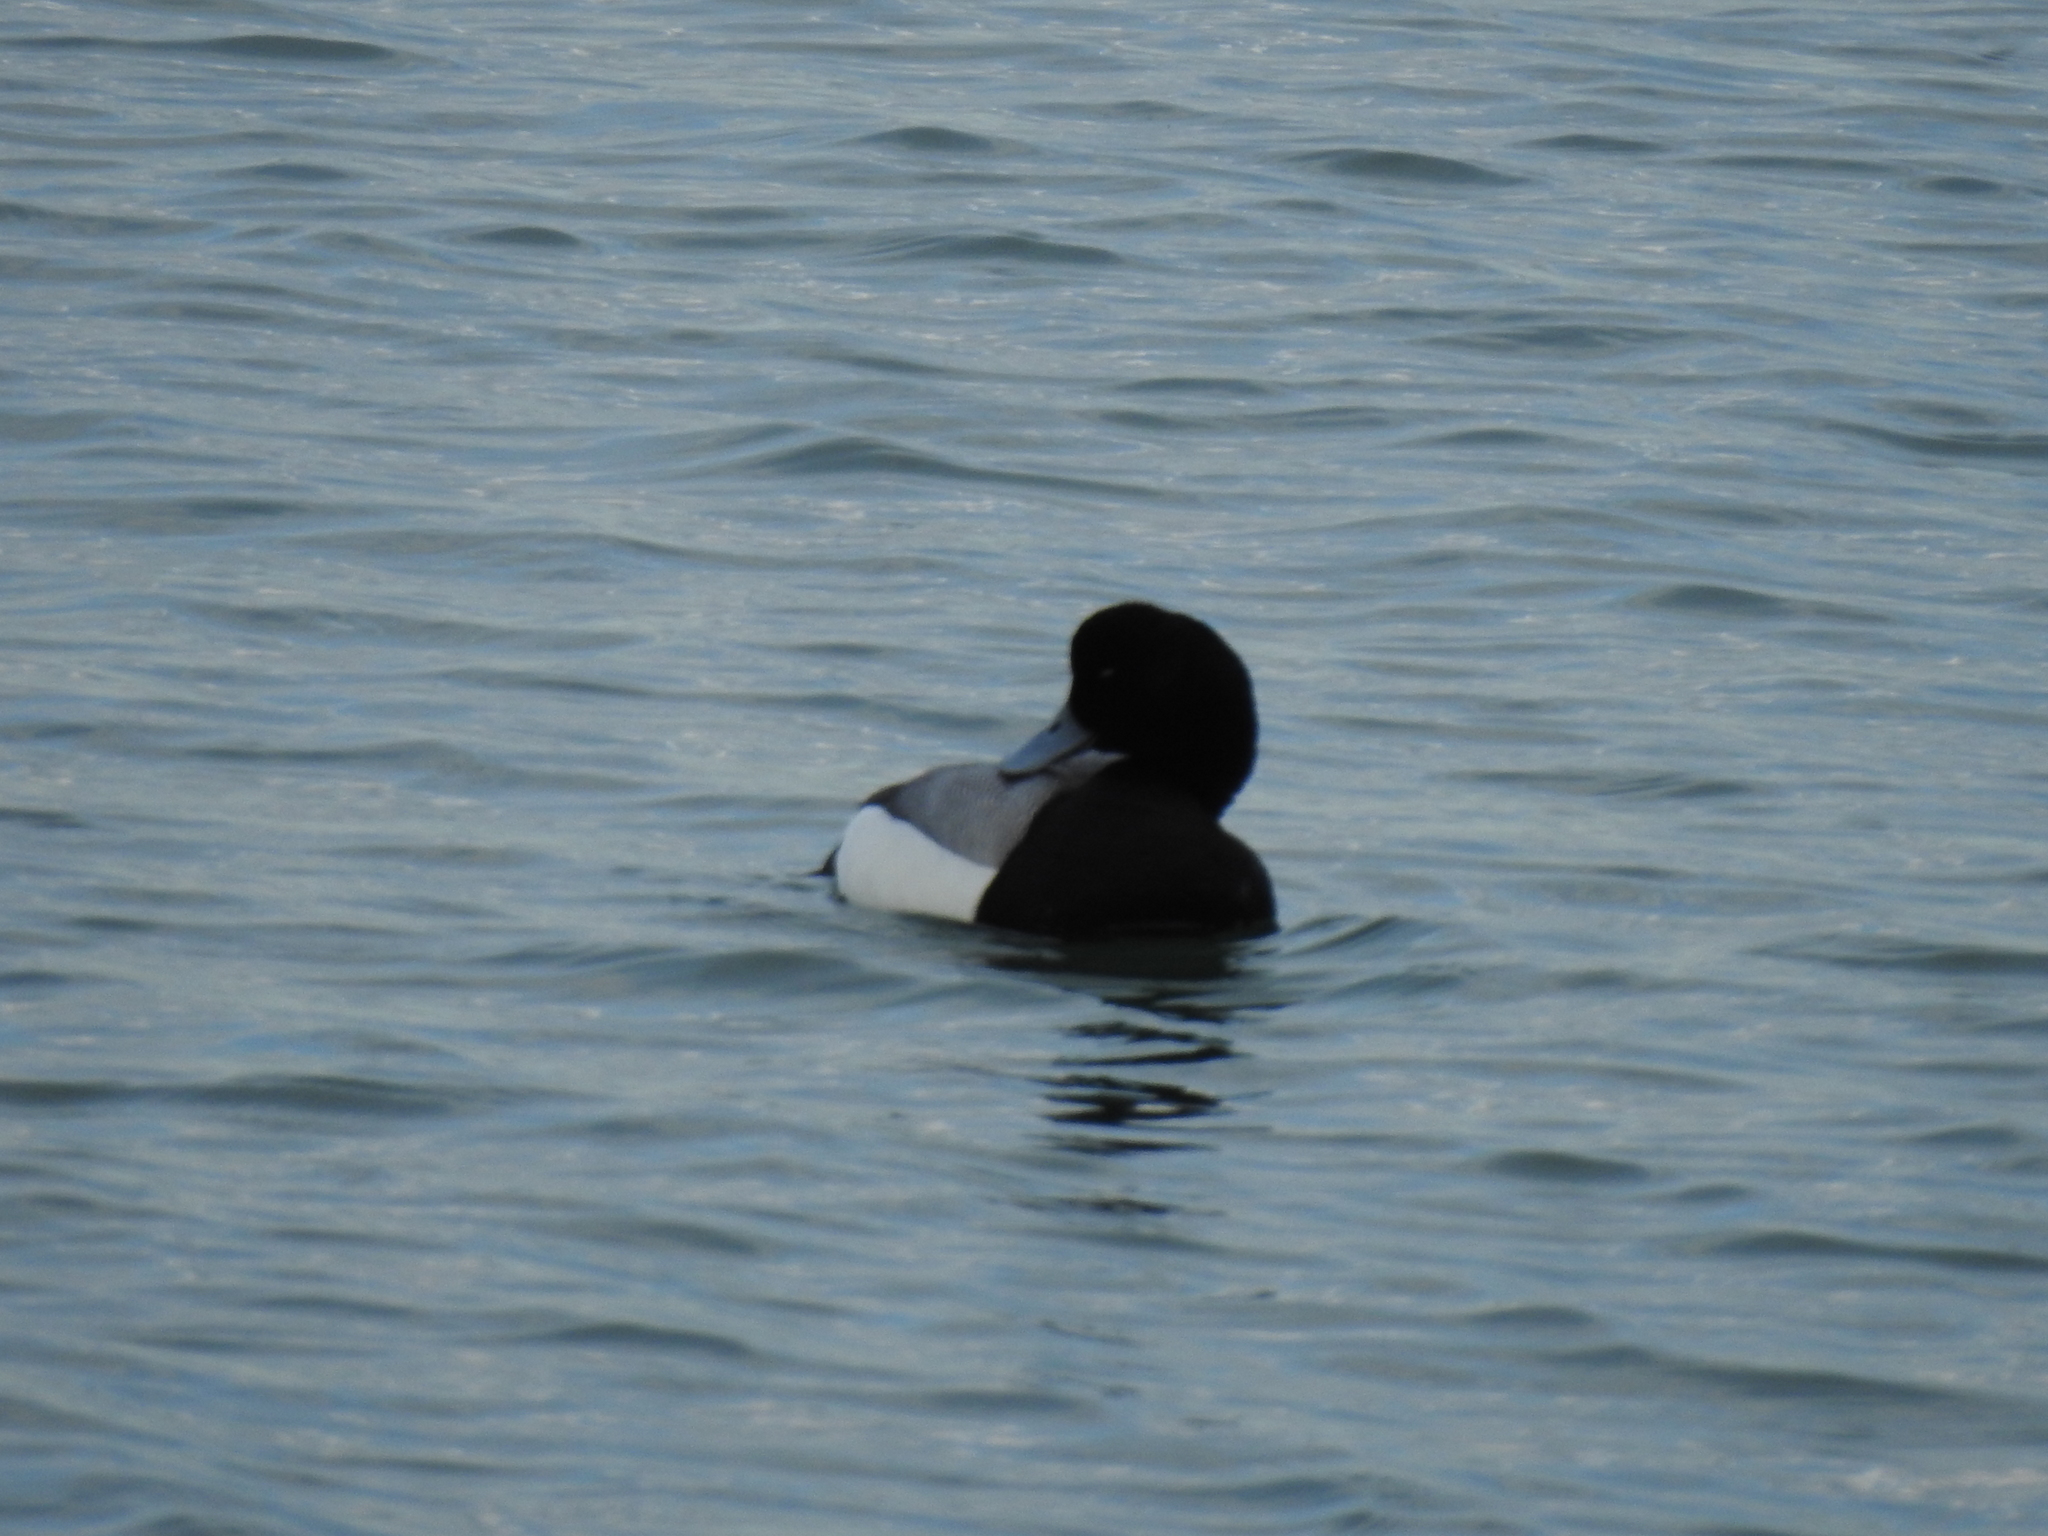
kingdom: Animalia
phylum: Chordata
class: Aves
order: Anseriformes
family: Anatidae
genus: Aythya
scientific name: Aythya affinis
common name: Lesser scaup
